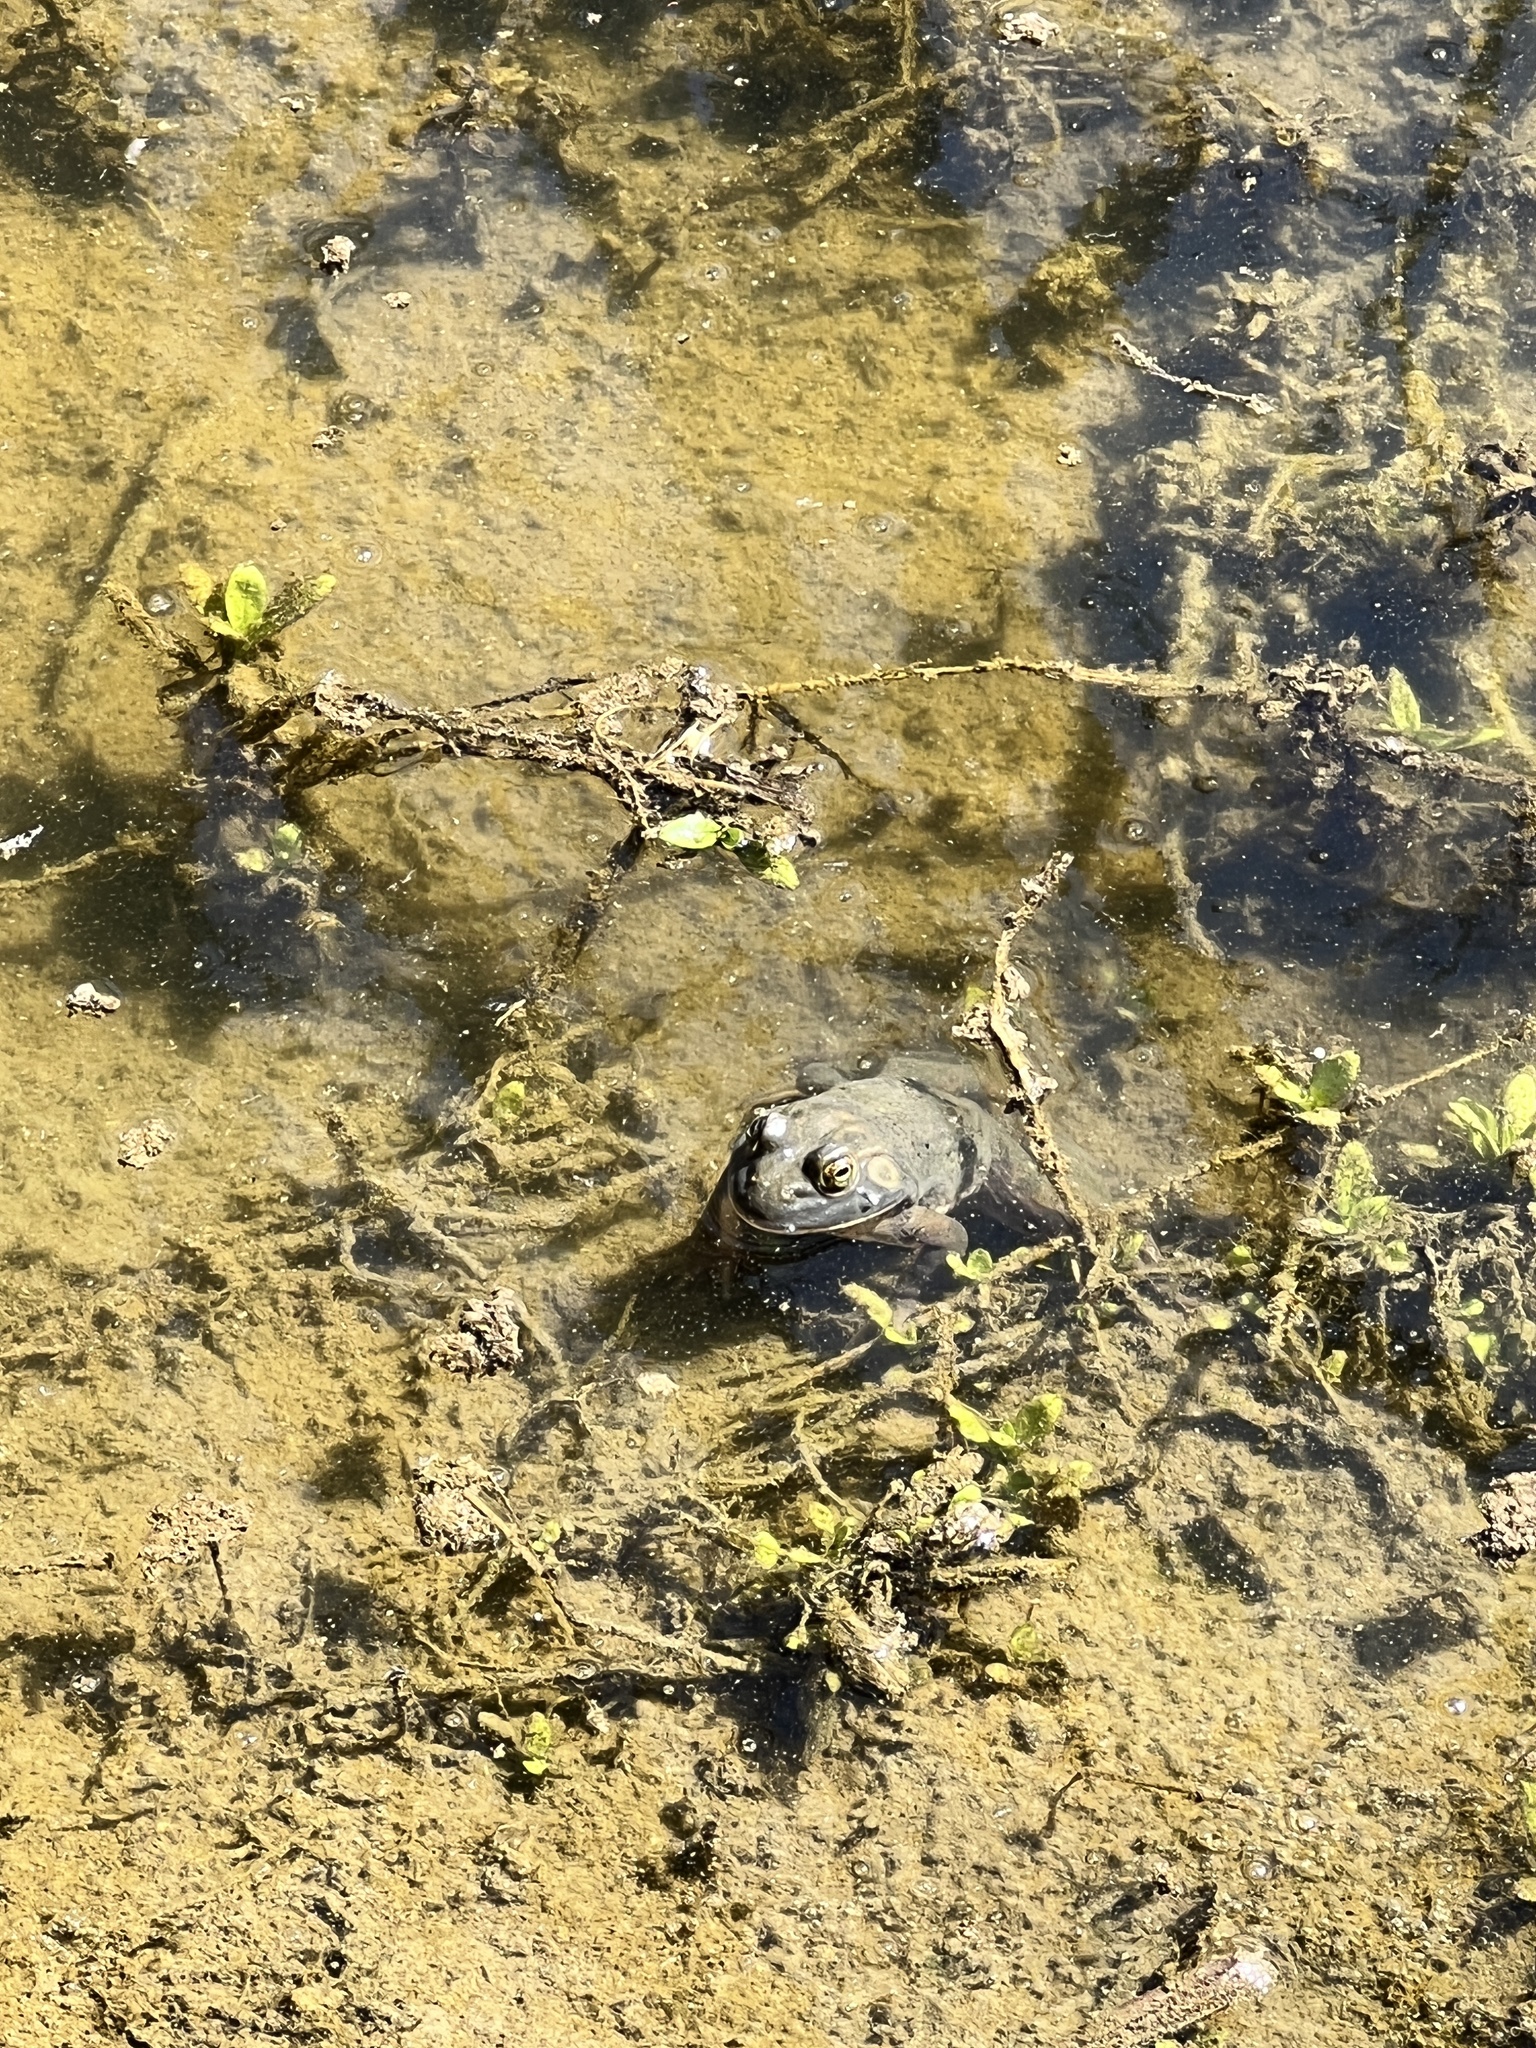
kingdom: Animalia
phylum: Chordata
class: Amphibia
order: Anura
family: Ranidae
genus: Lithobates
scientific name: Lithobates catesbeianus
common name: American bullfrog
